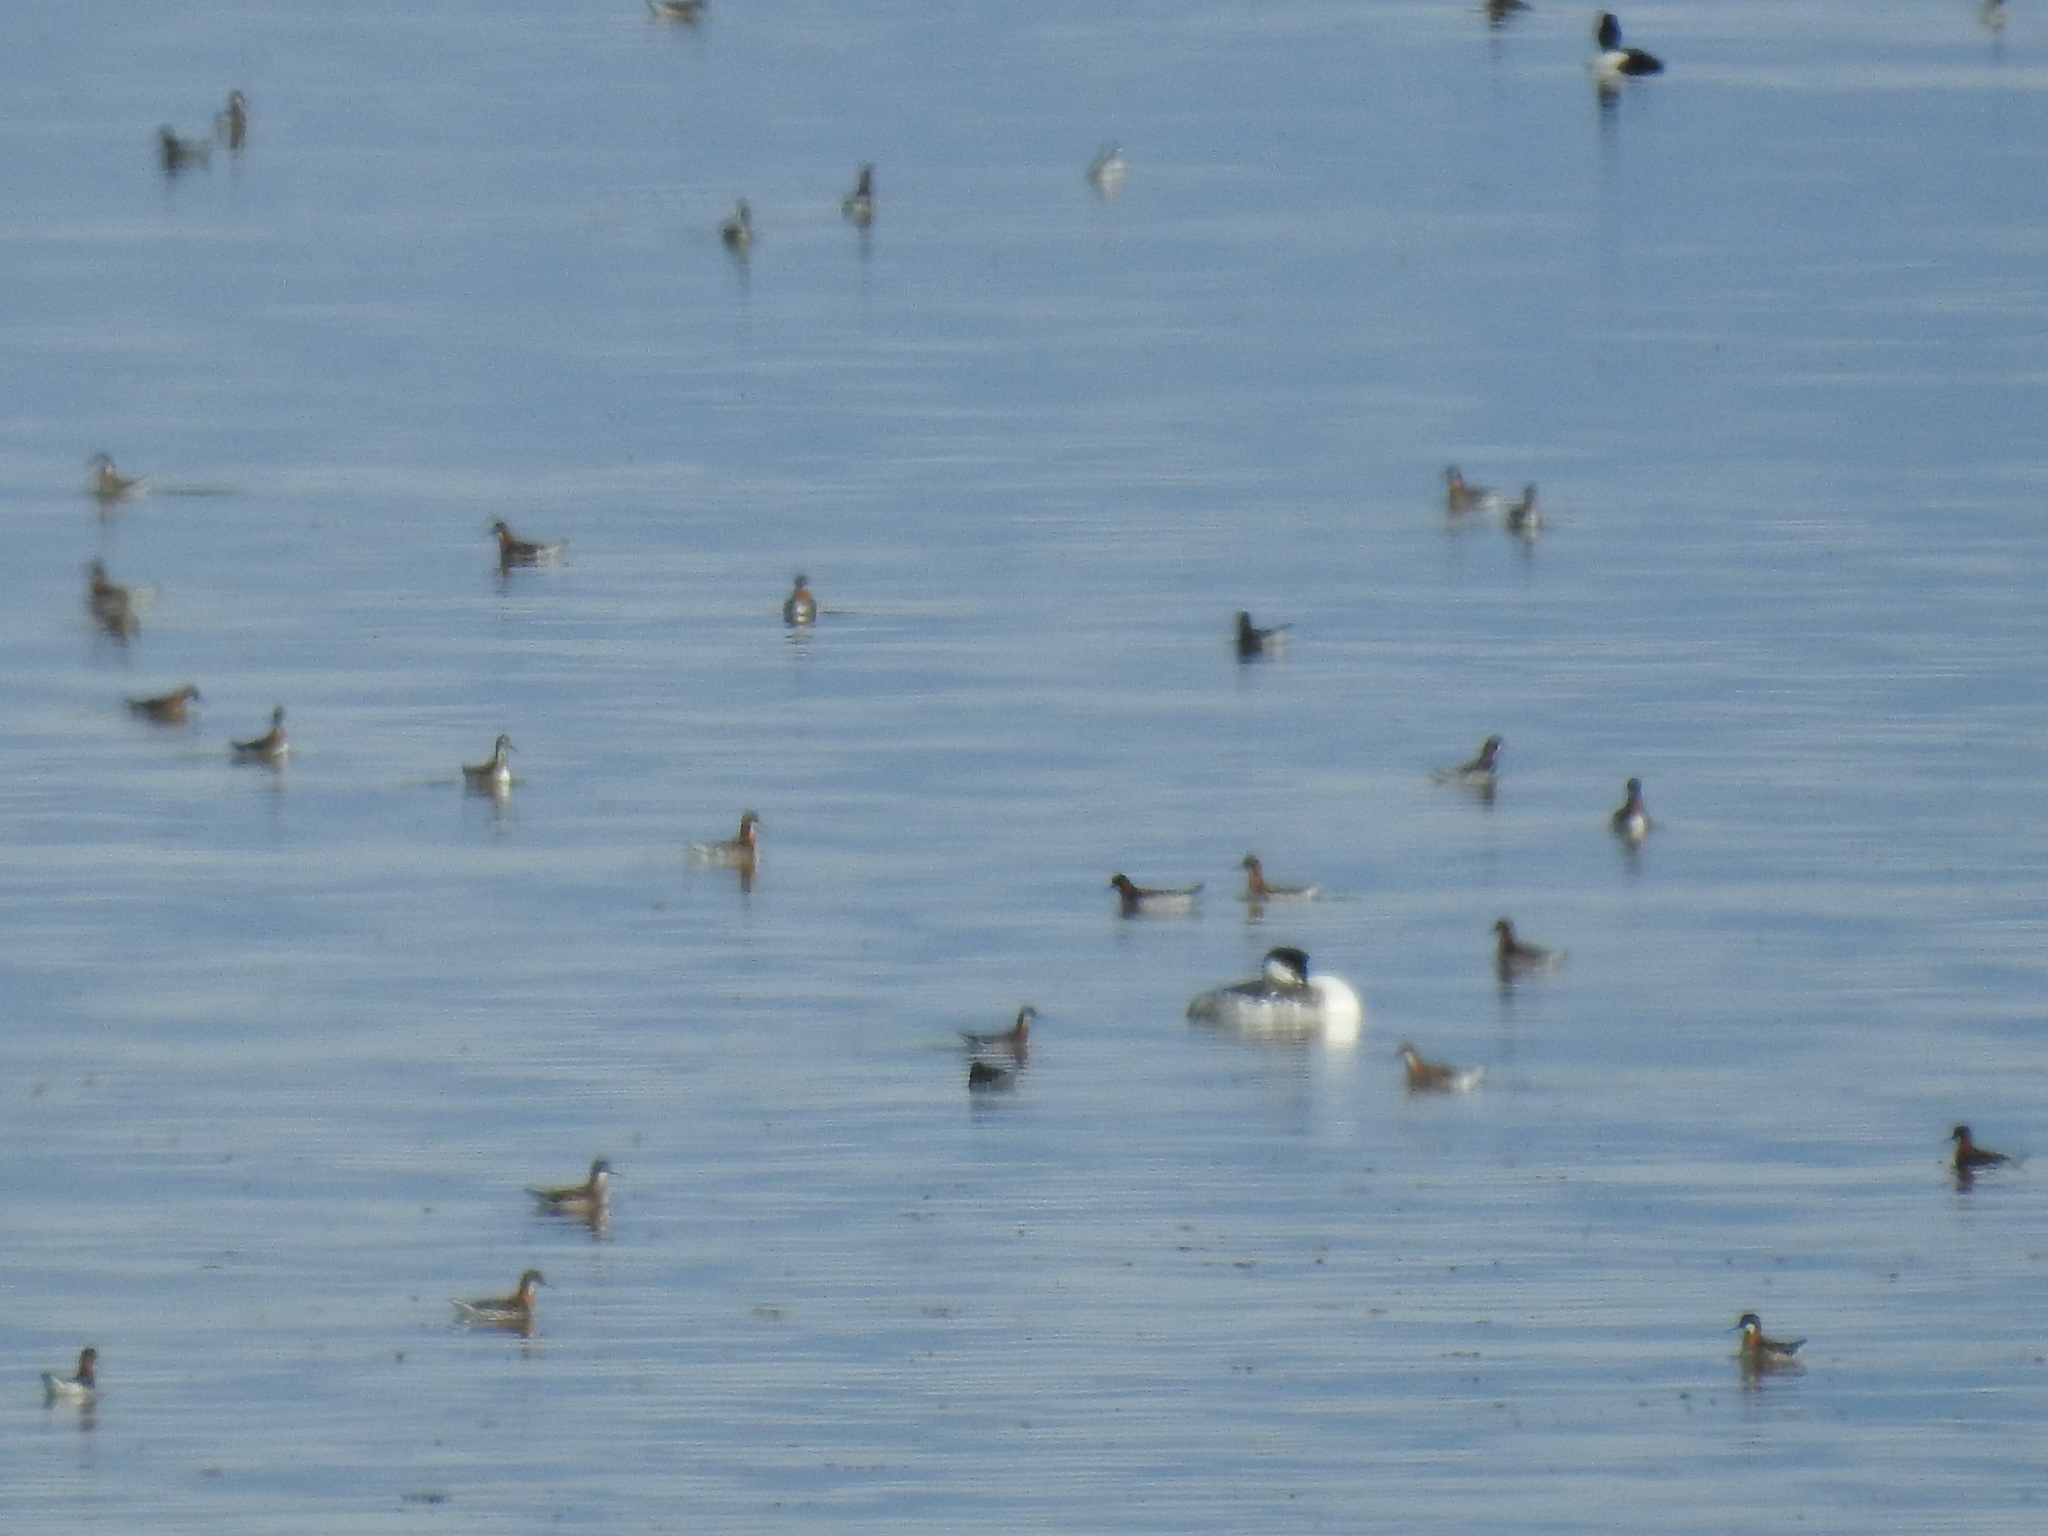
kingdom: Animalia
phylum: Chordata
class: Aves
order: Podicipediformes
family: Podicipedidae
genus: Aechmophorus
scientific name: Aechmophorus clarkii
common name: Clark's grebe
